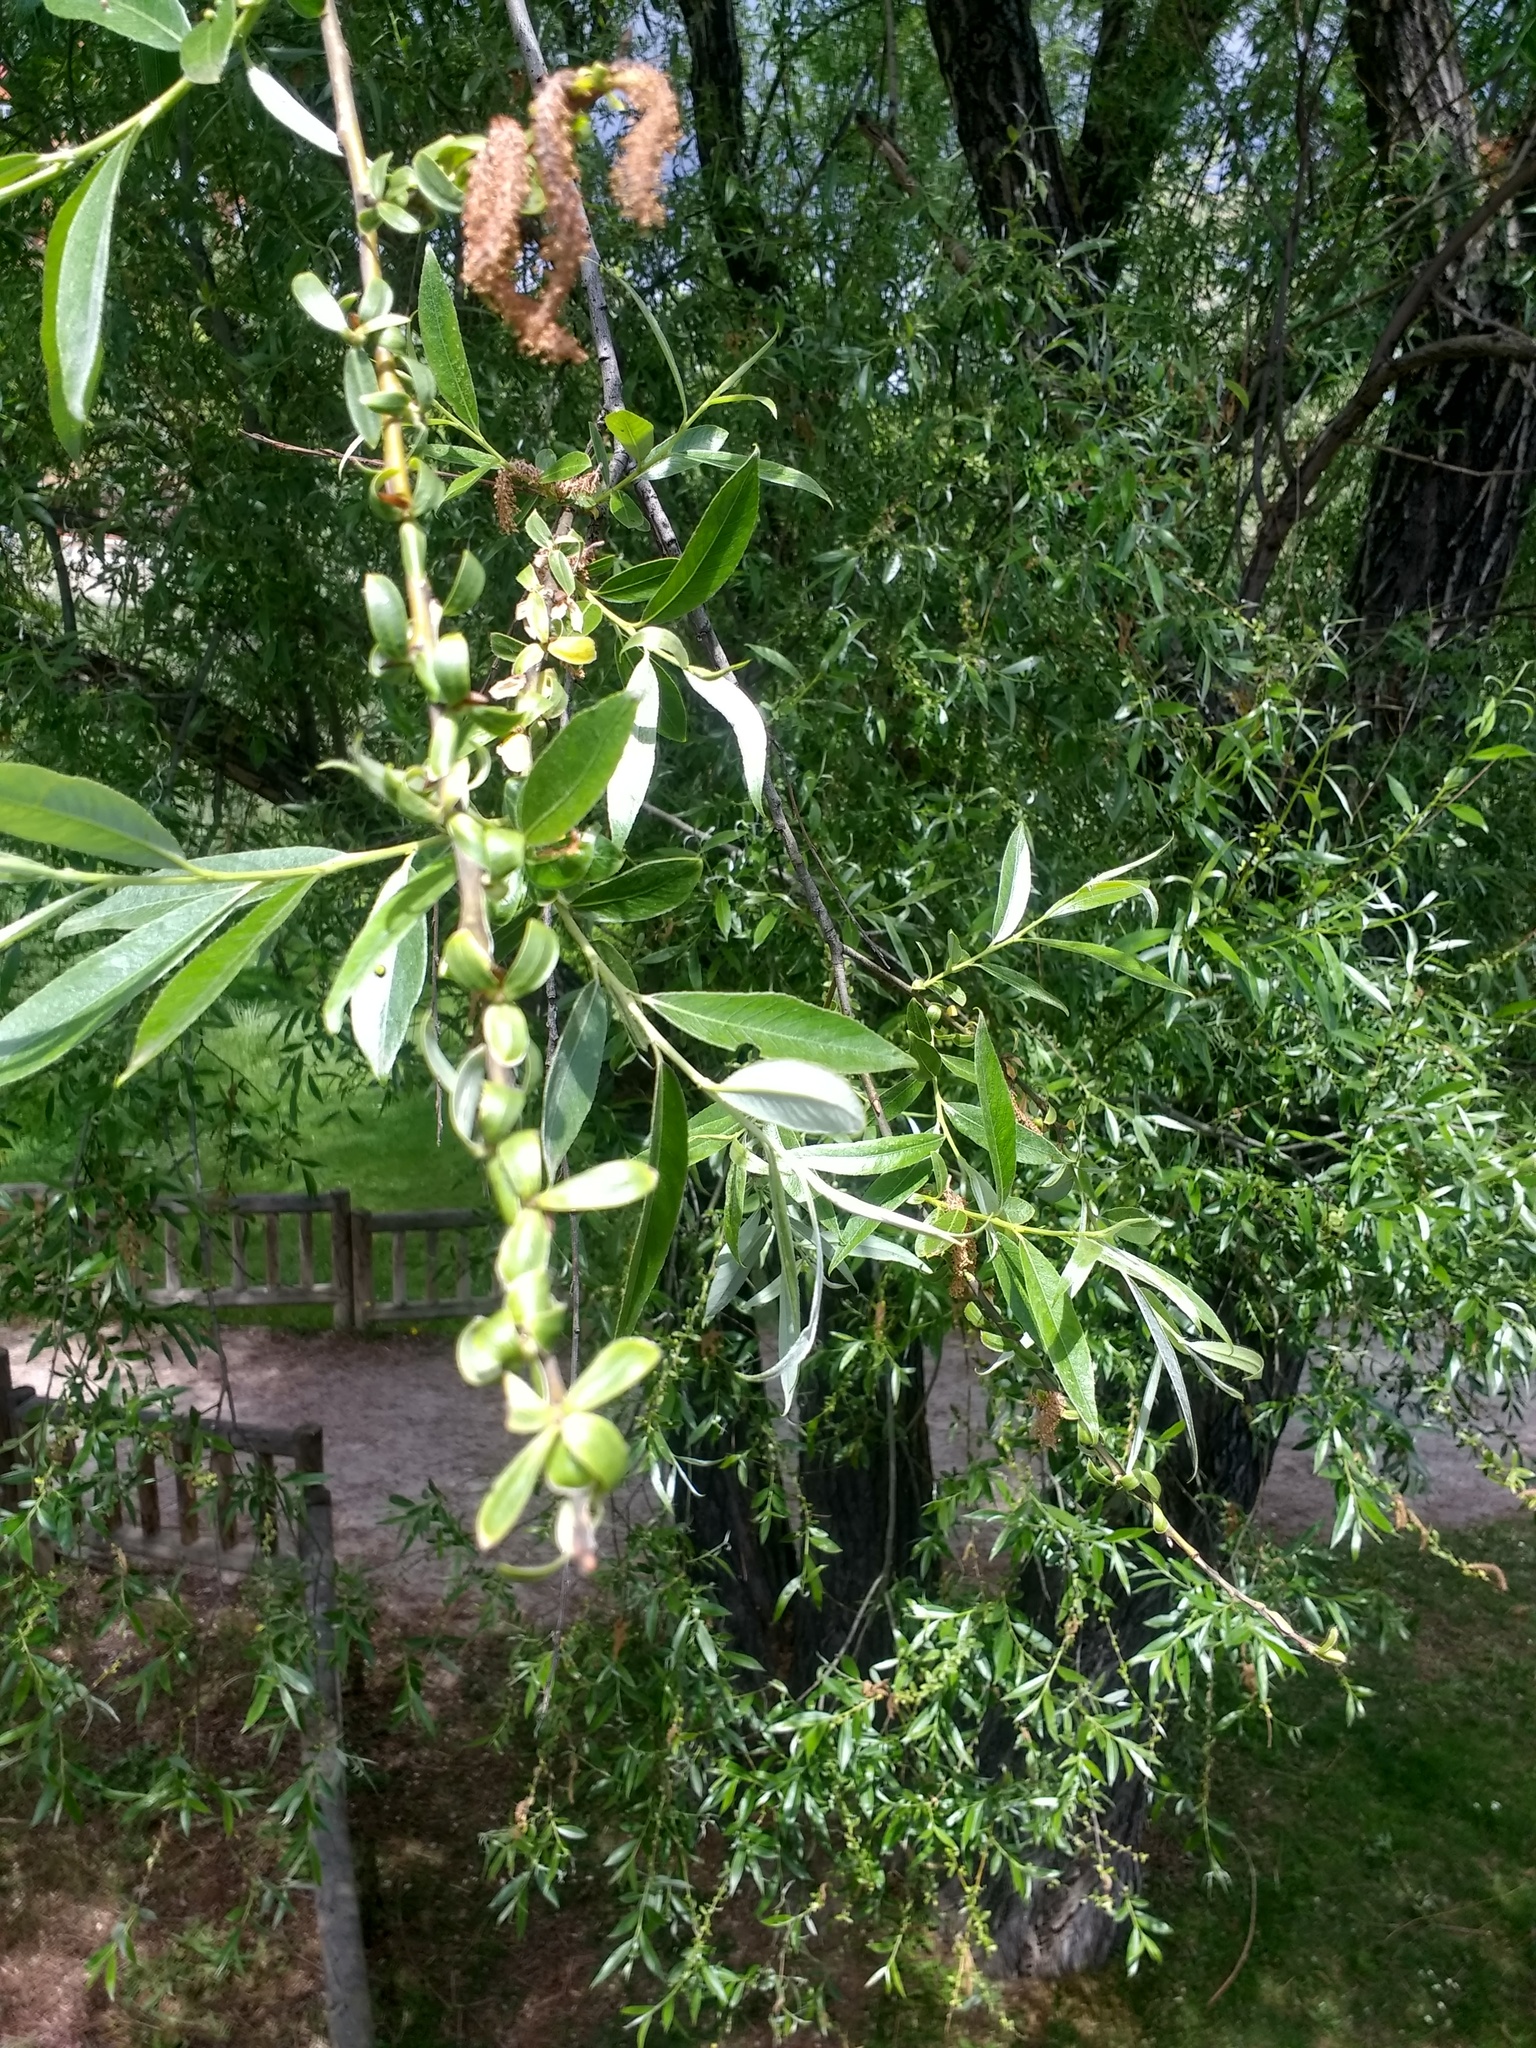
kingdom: Plantae
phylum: Tracheophyta
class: Magnoliopsida
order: Malpighiales
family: Salicaceae
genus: Salix
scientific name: Salix alba
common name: White willow
